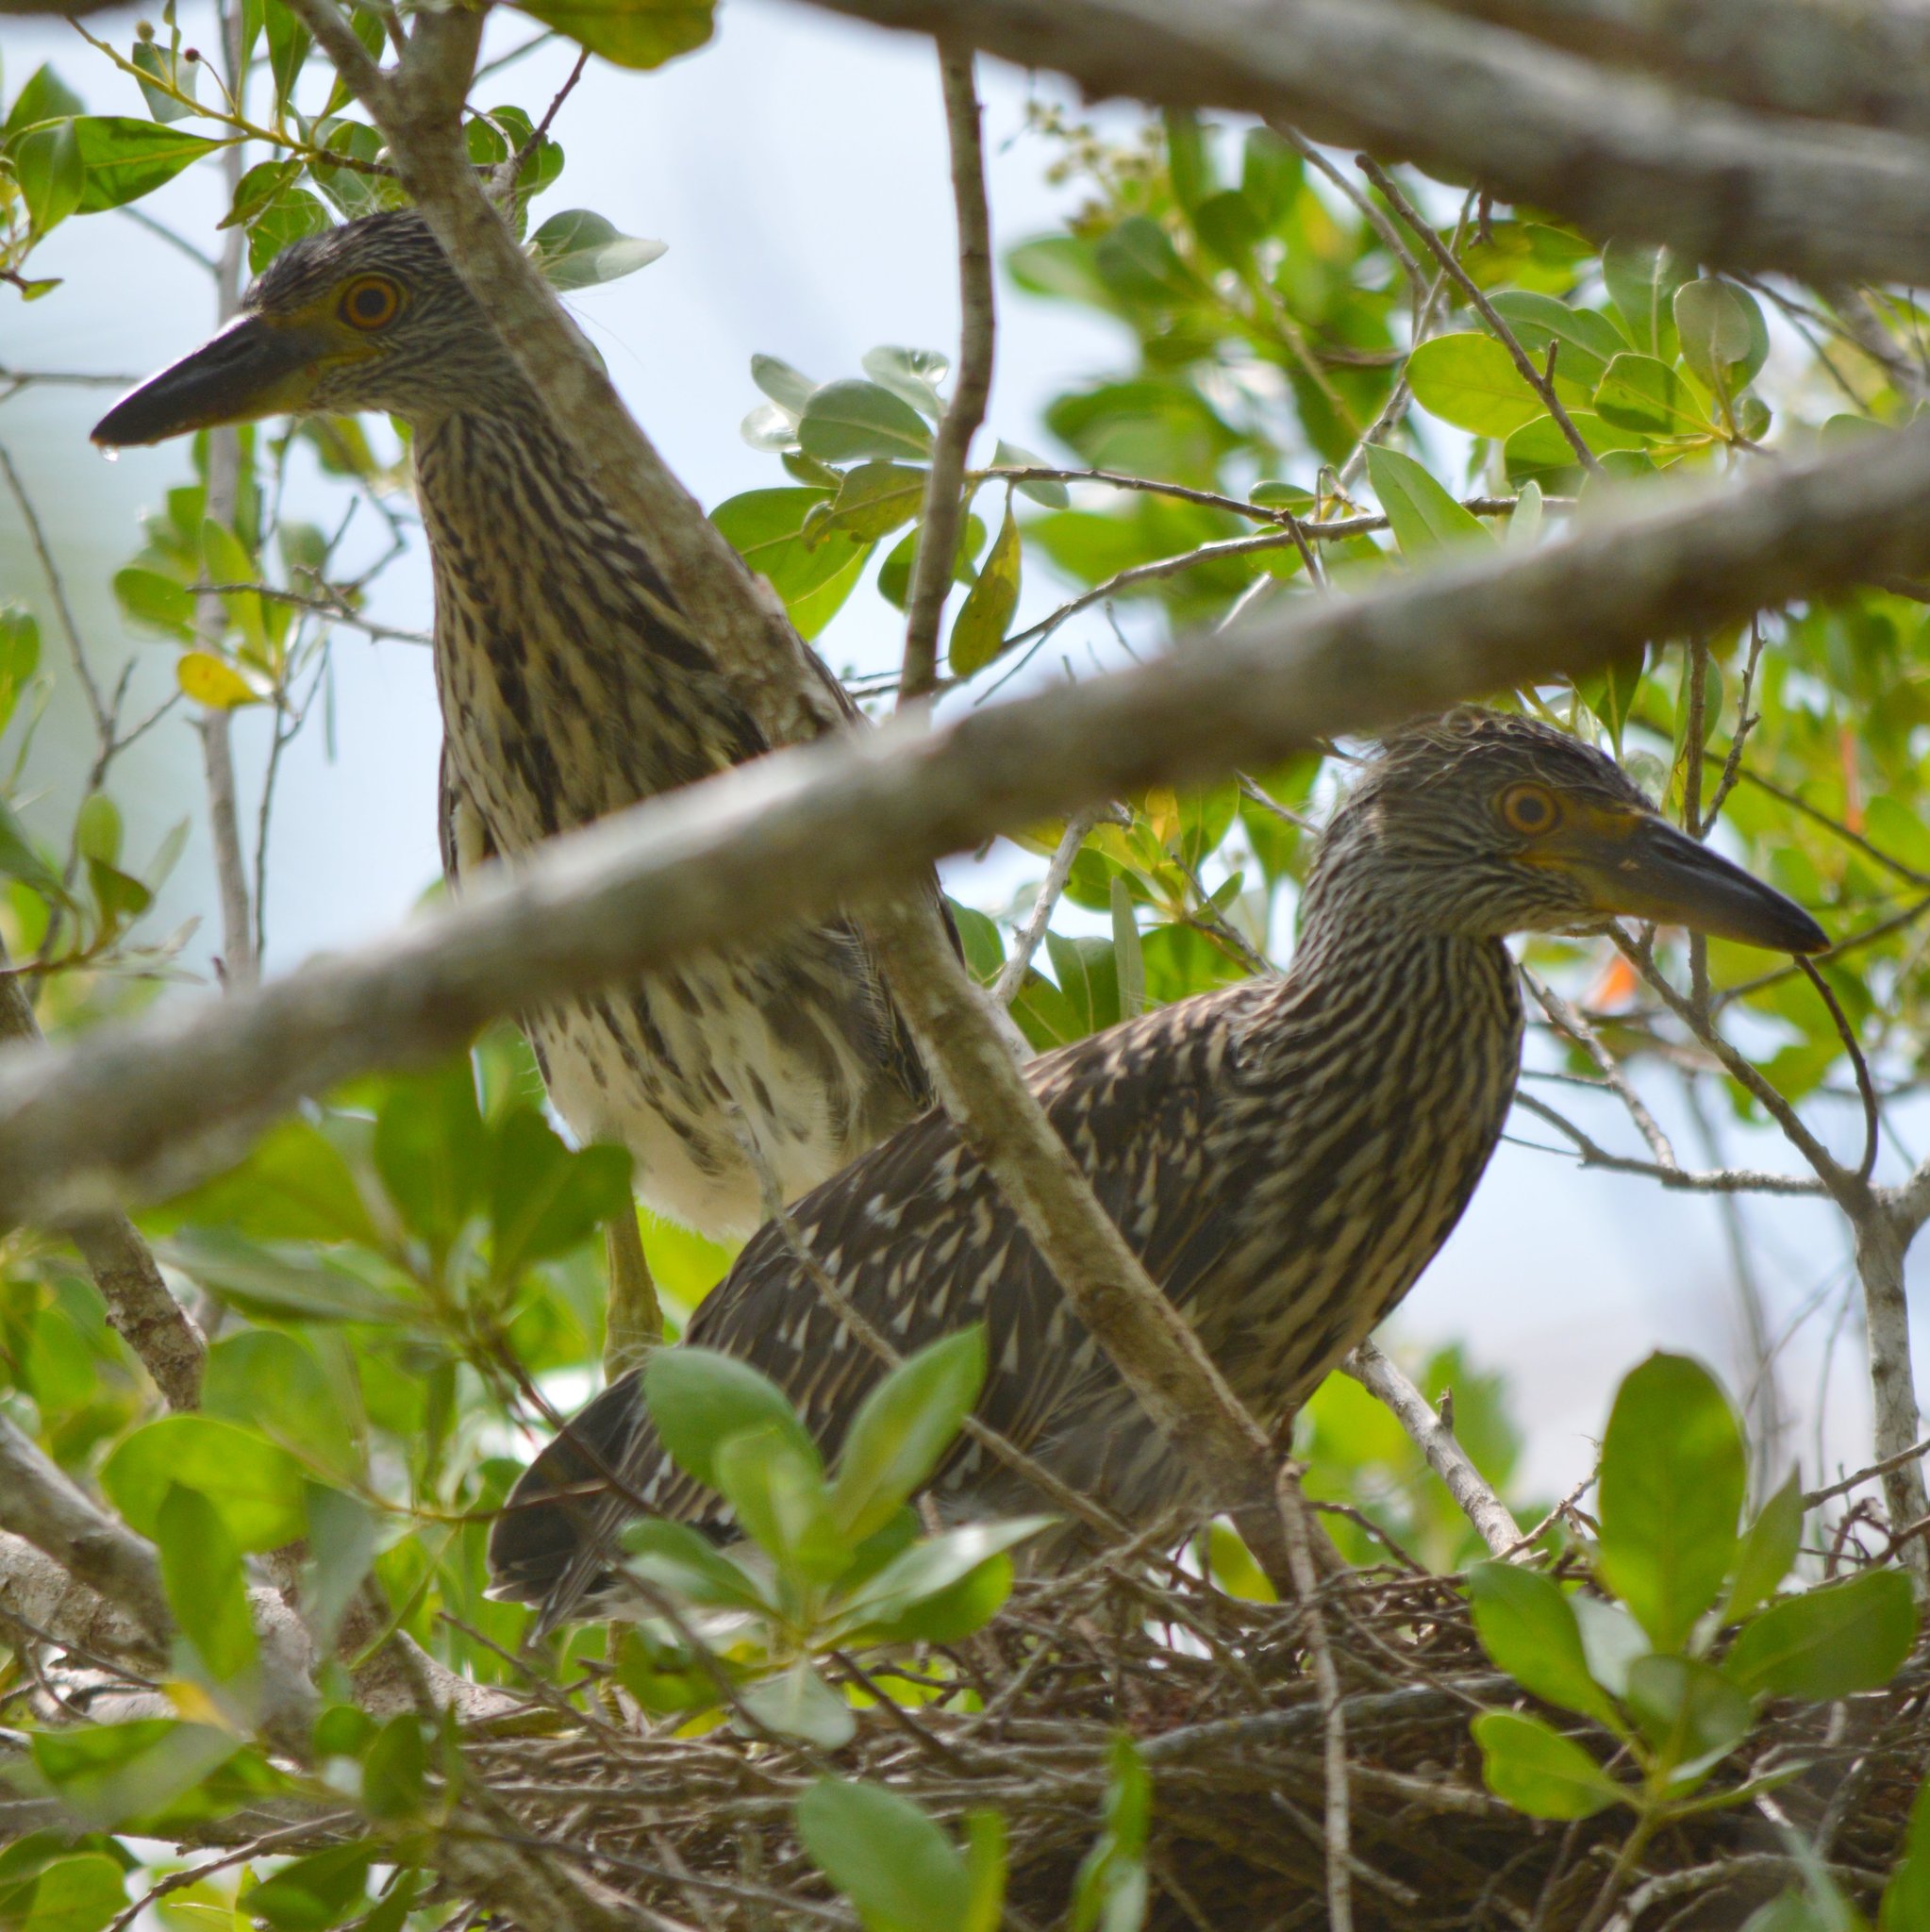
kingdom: Animalia
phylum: Chordata
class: Aves
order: Pelecaniformes
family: Ardeidae
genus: Nyctanassa
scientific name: Nyctanassa violacea
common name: Yellow-crowned night heron
